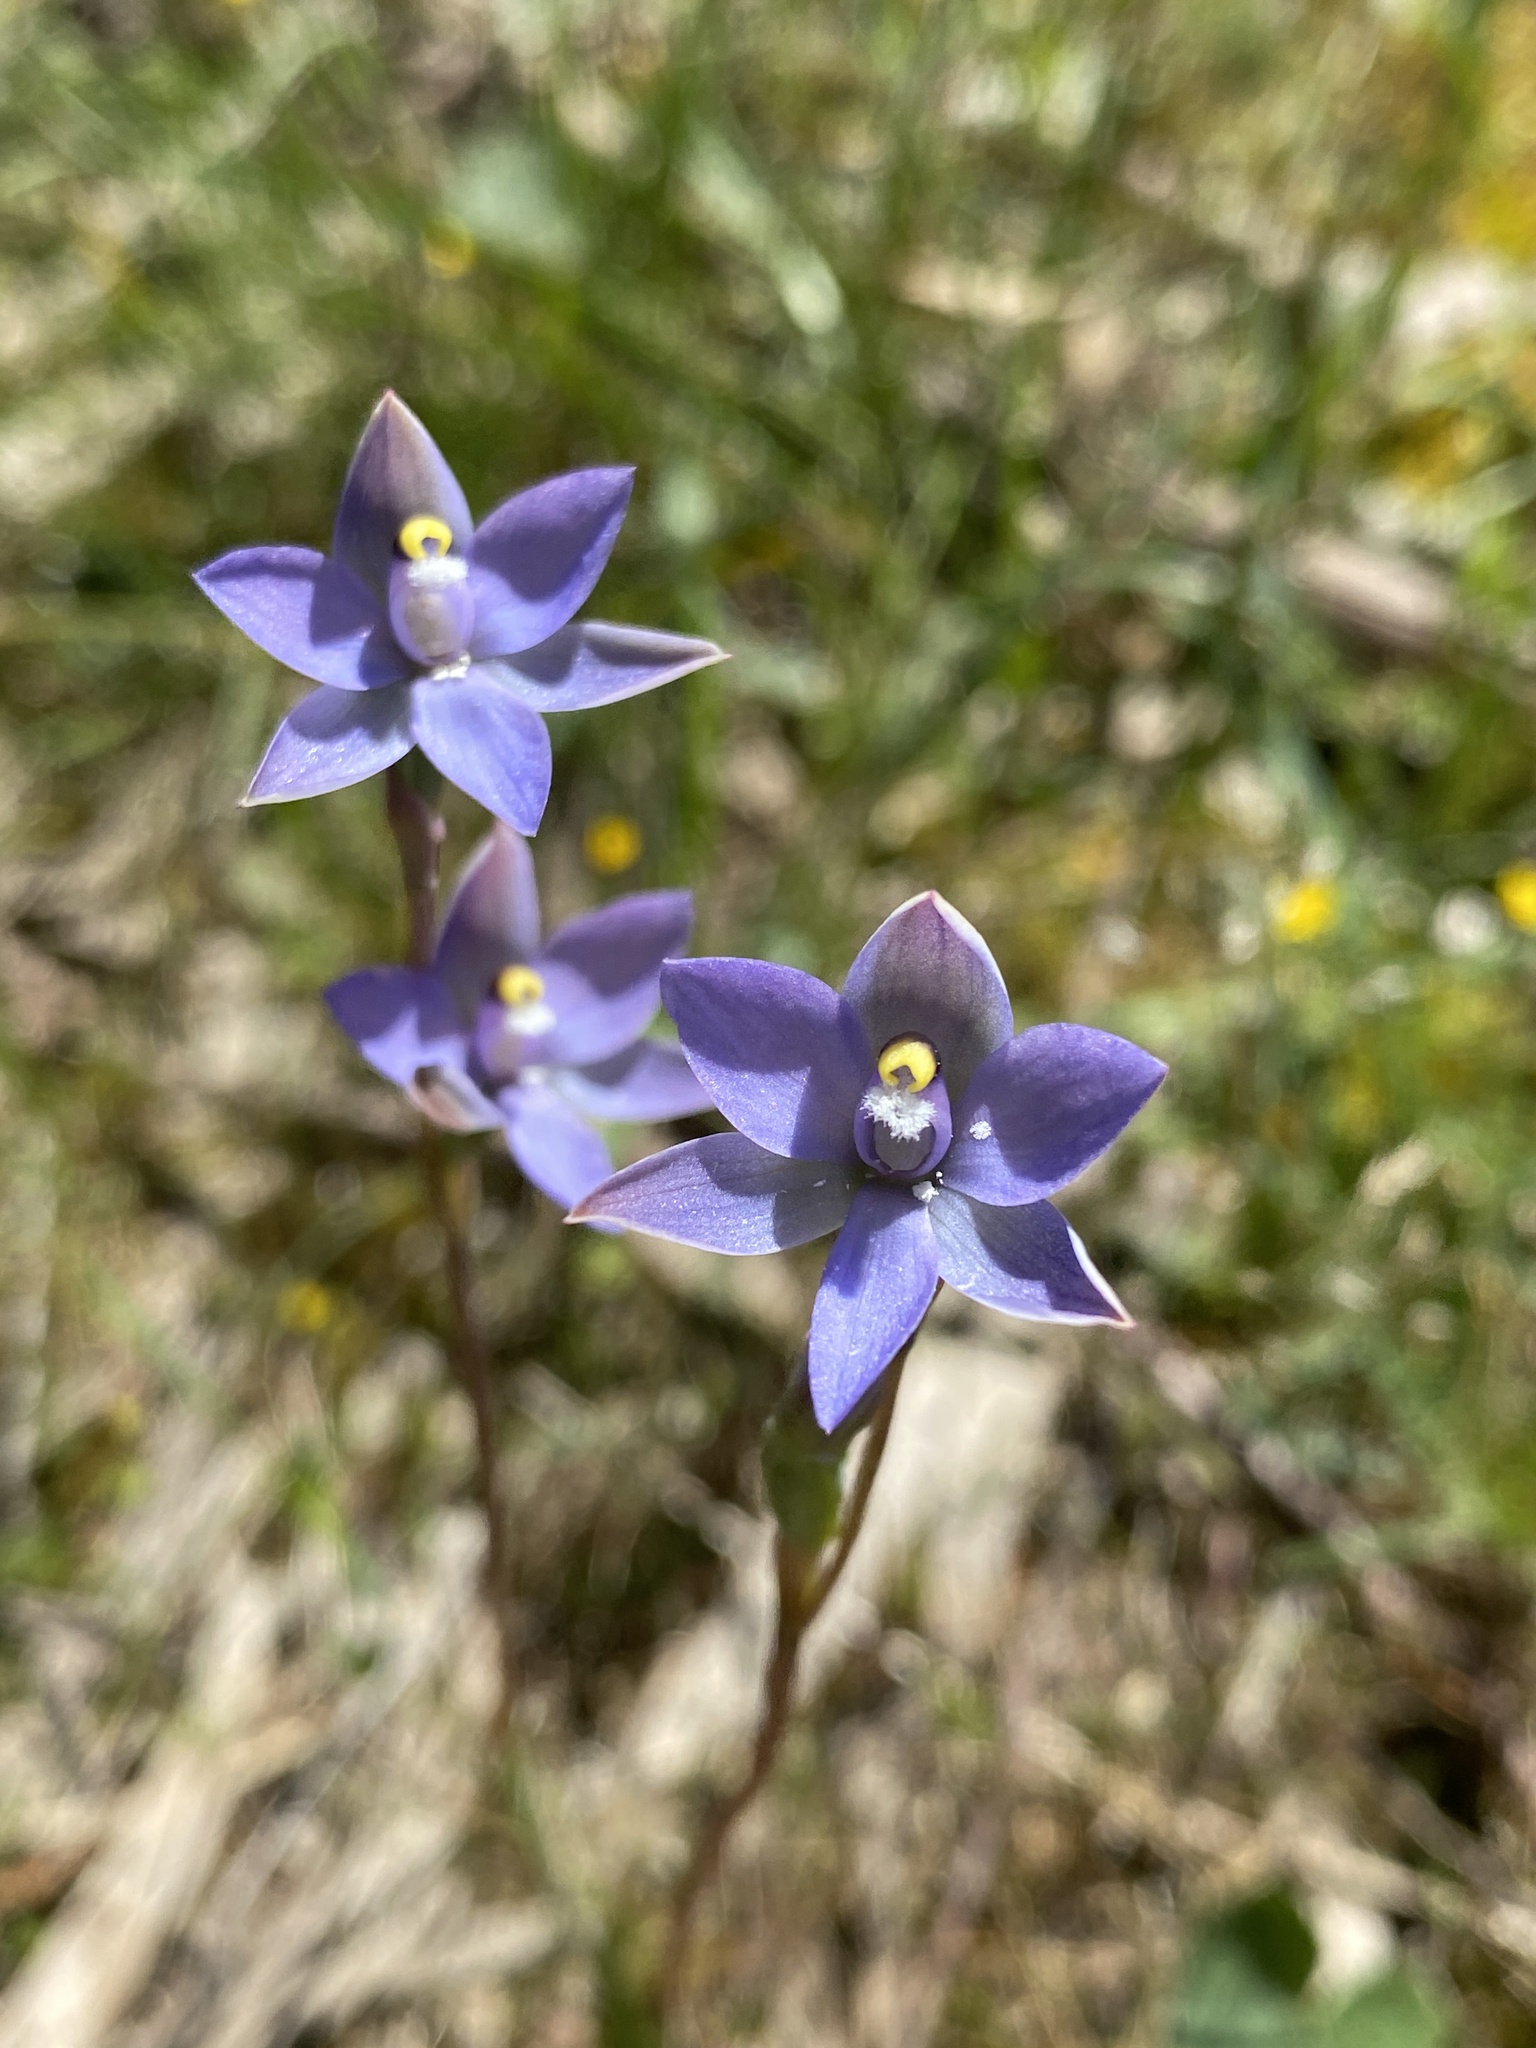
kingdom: Plantae
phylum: Tracheophyta
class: Liliopsida
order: Asparagales
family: Orchidaceae
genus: Thelymitra
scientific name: Thelymitra arenaria
